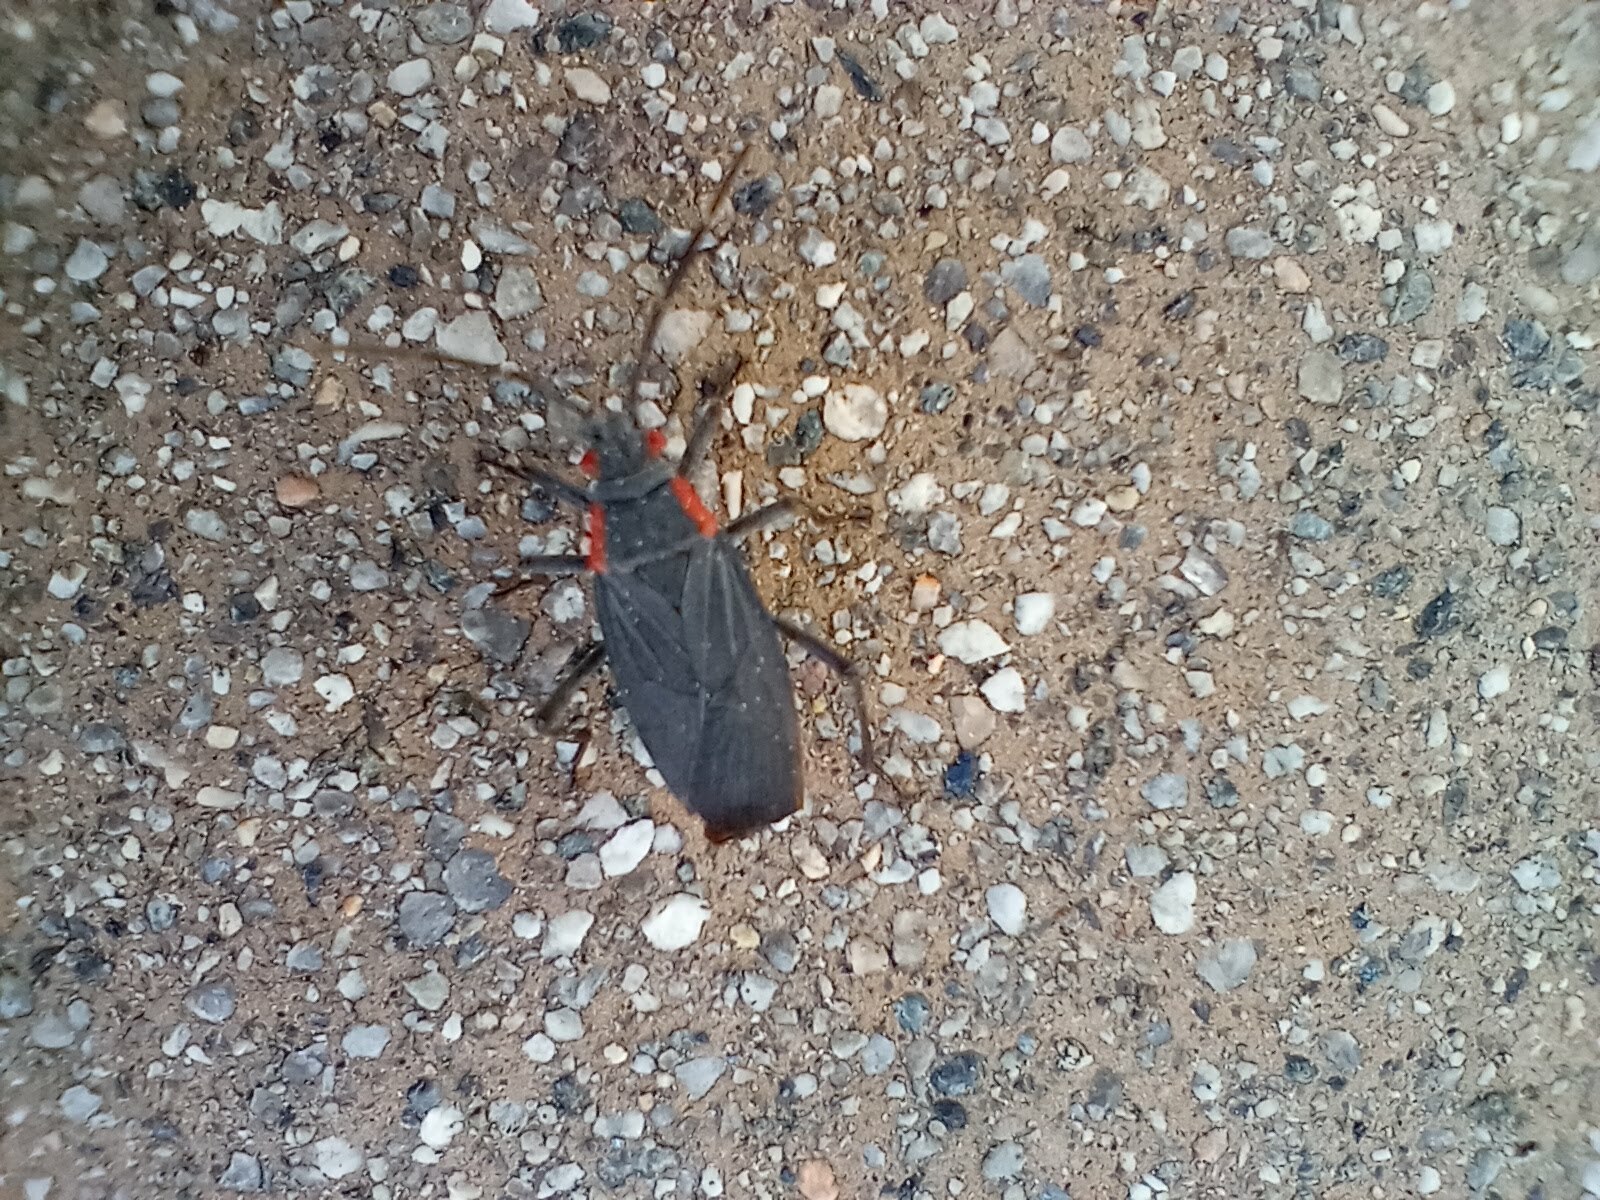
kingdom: Animalia
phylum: Arthropoda
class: Insecta
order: Hemiptera
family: Rhopalidae
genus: Jadera
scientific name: Jadera haematoloma
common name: Red-shouldered bug
